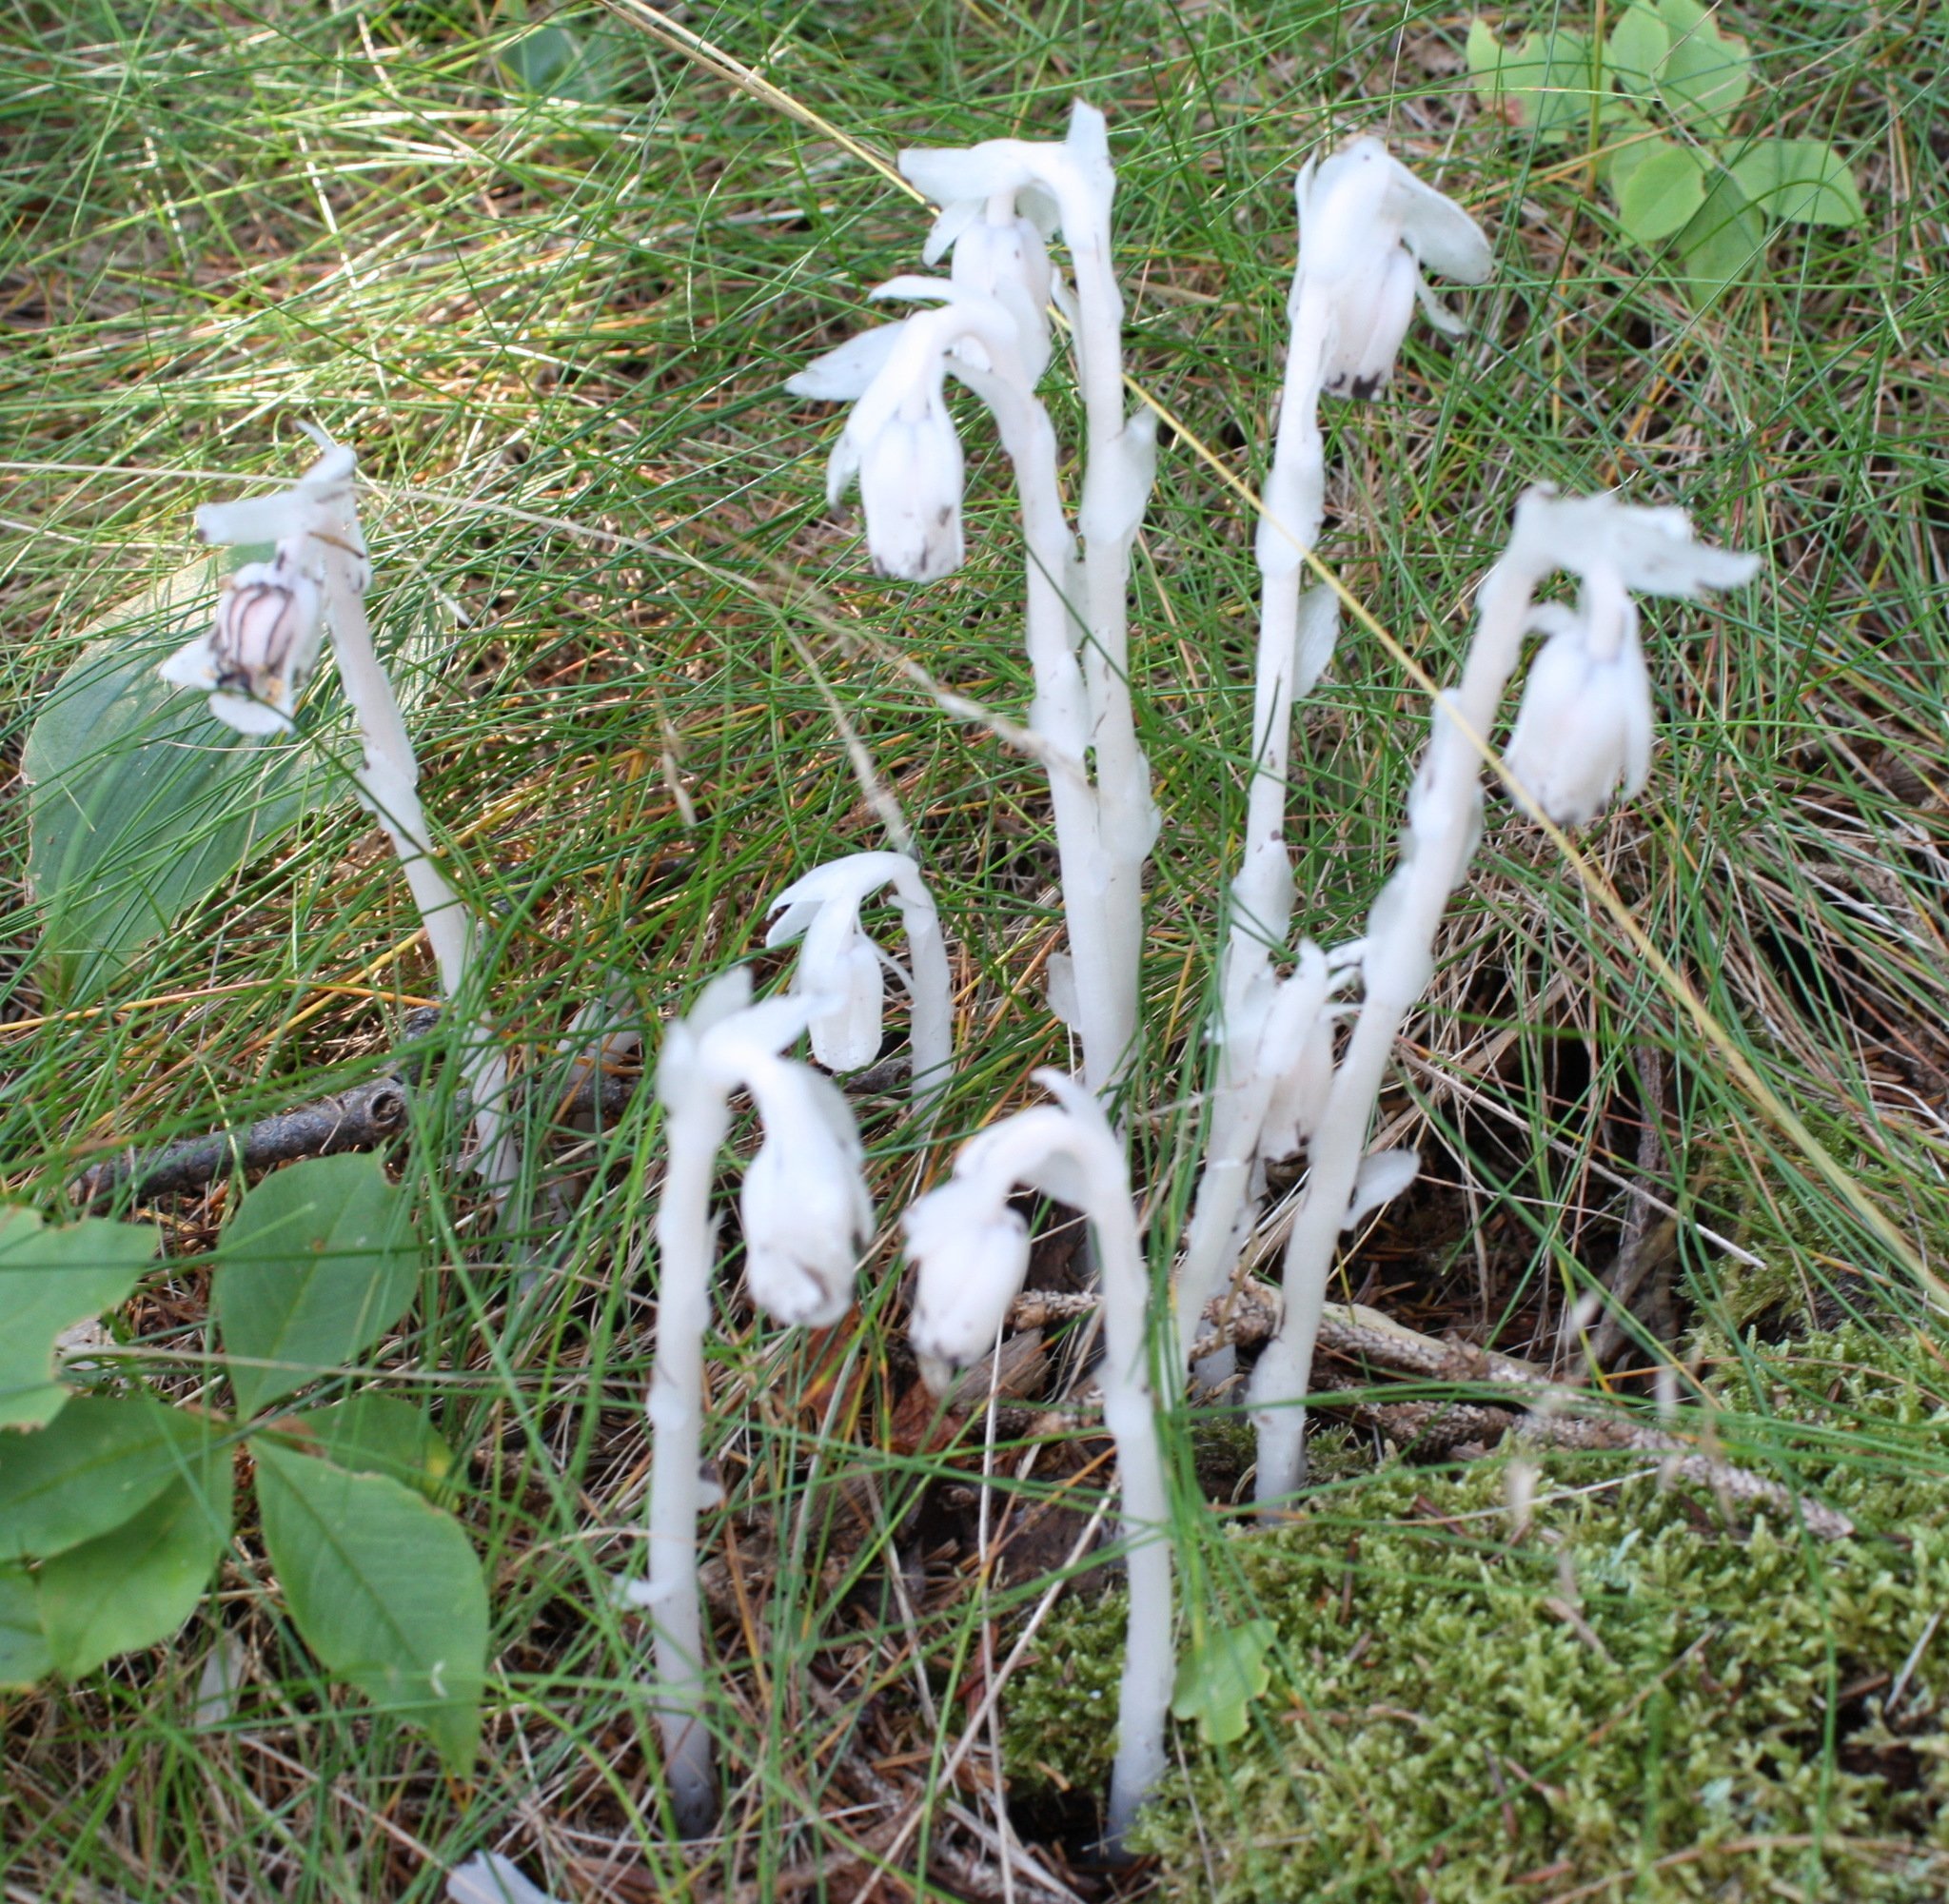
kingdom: Plantae
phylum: Tracheophyta
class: Magnoliopsida
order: Ericales
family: Ericaceae
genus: Monotropa
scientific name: Monotropa uniflora
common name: Convulsion root
